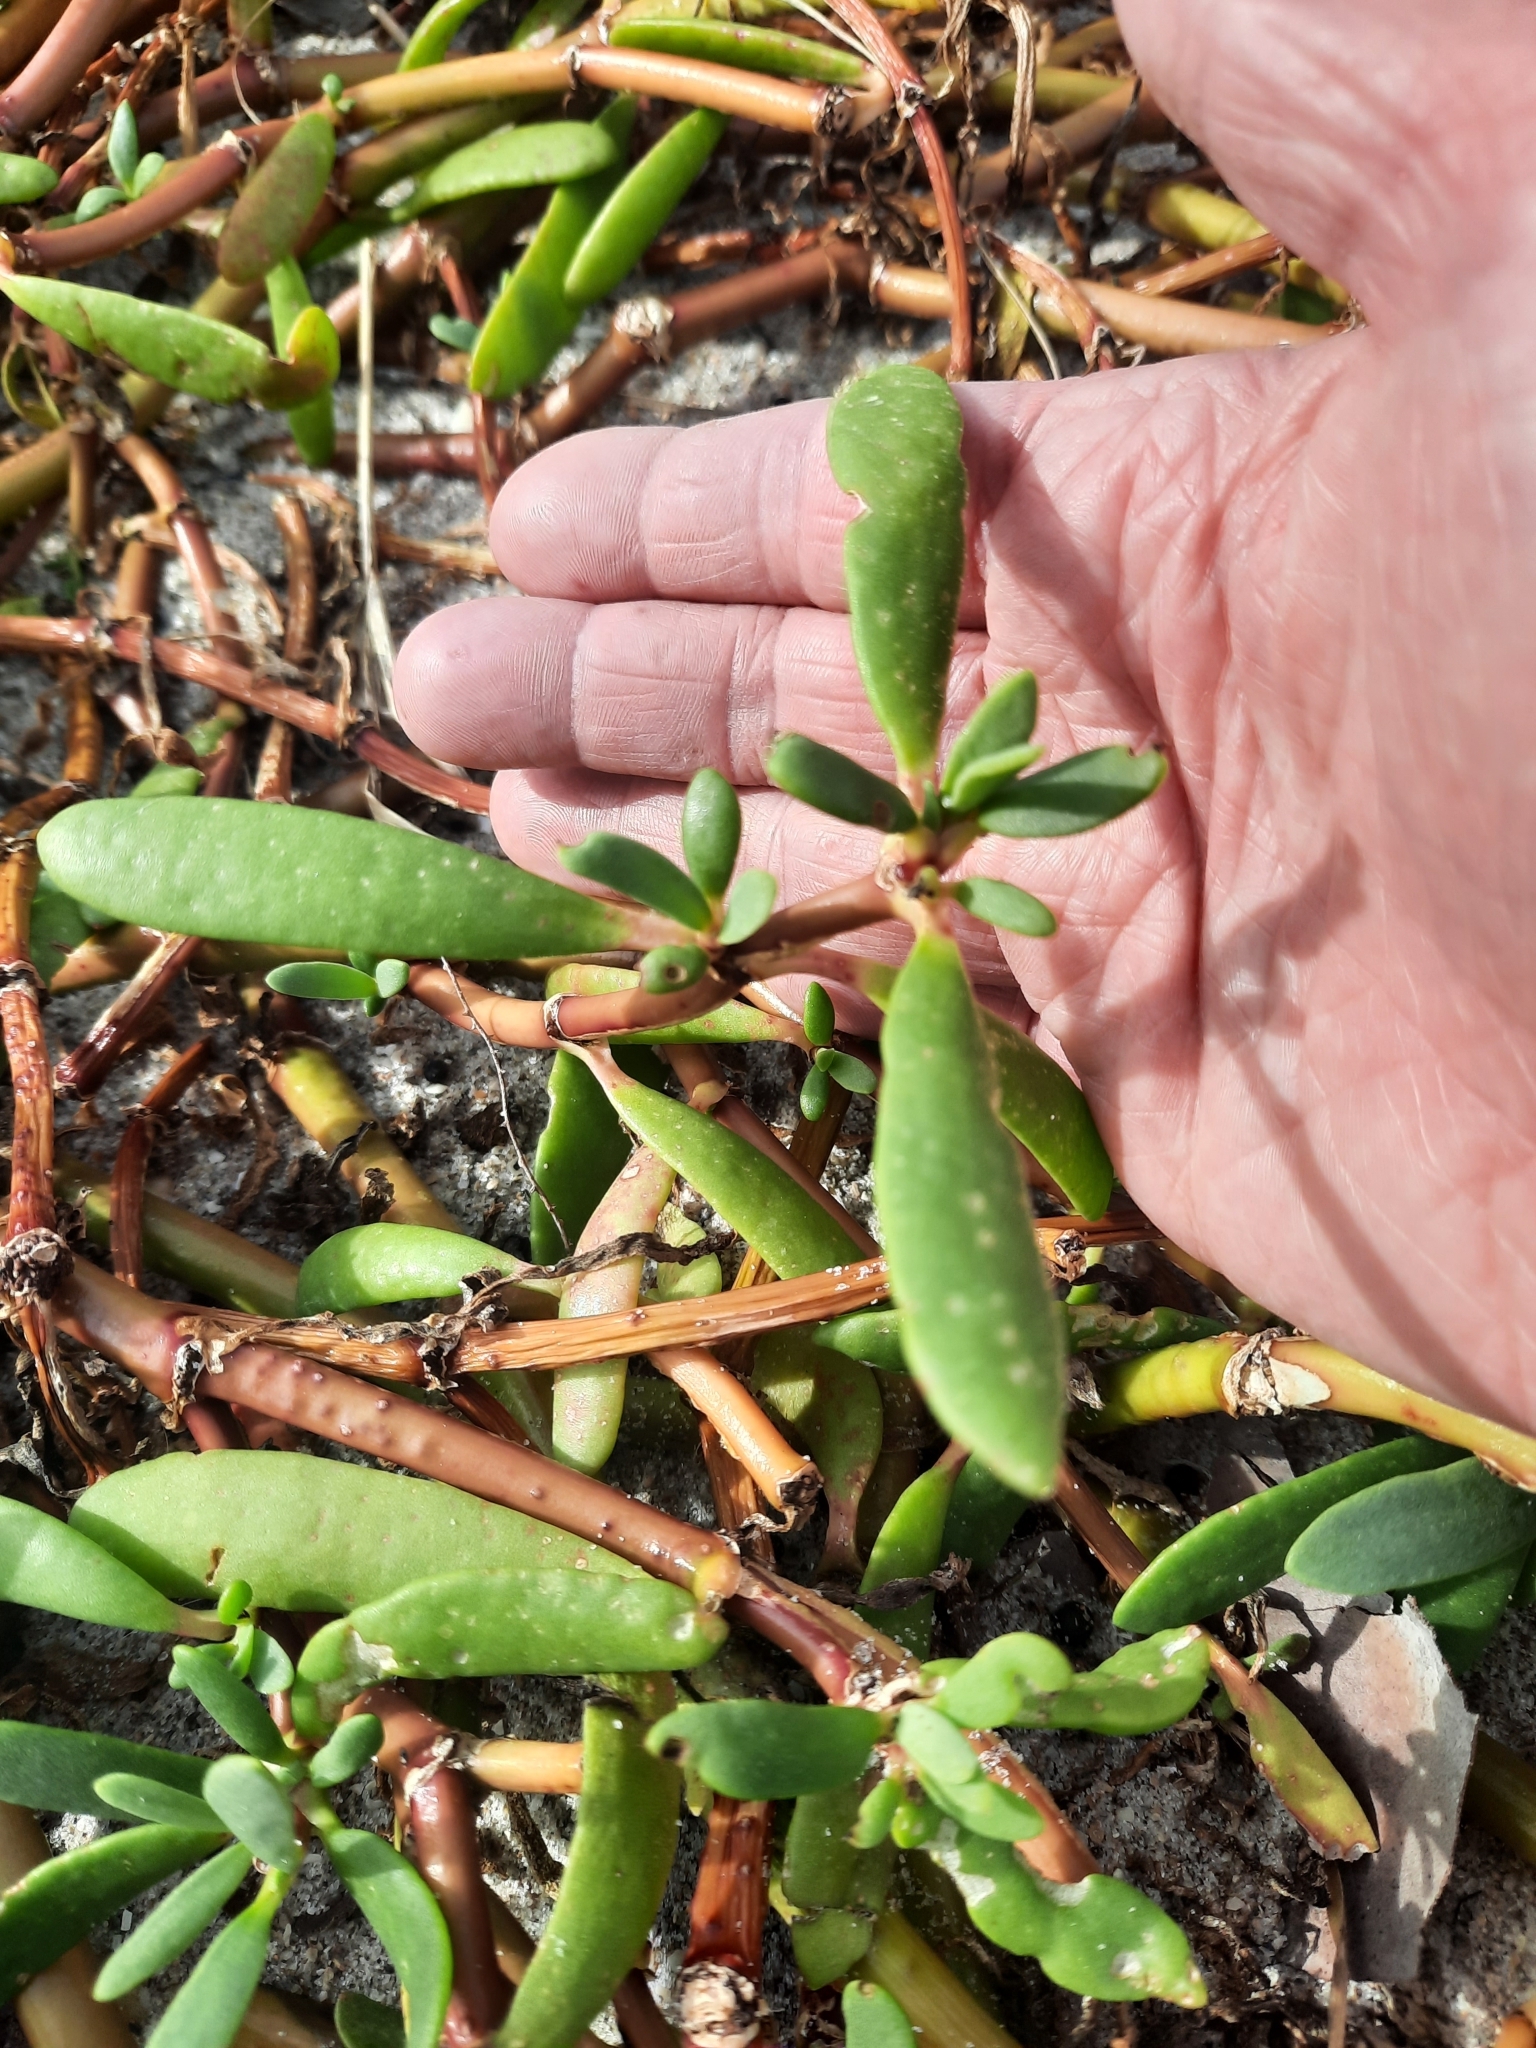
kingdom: Plantae
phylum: Tracheophyta
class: Magnoliopsida
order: Caryophyllales
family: Aizoaceae
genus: Sesuvium
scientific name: Sesuvium portulacastrum
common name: Sea-purslane
